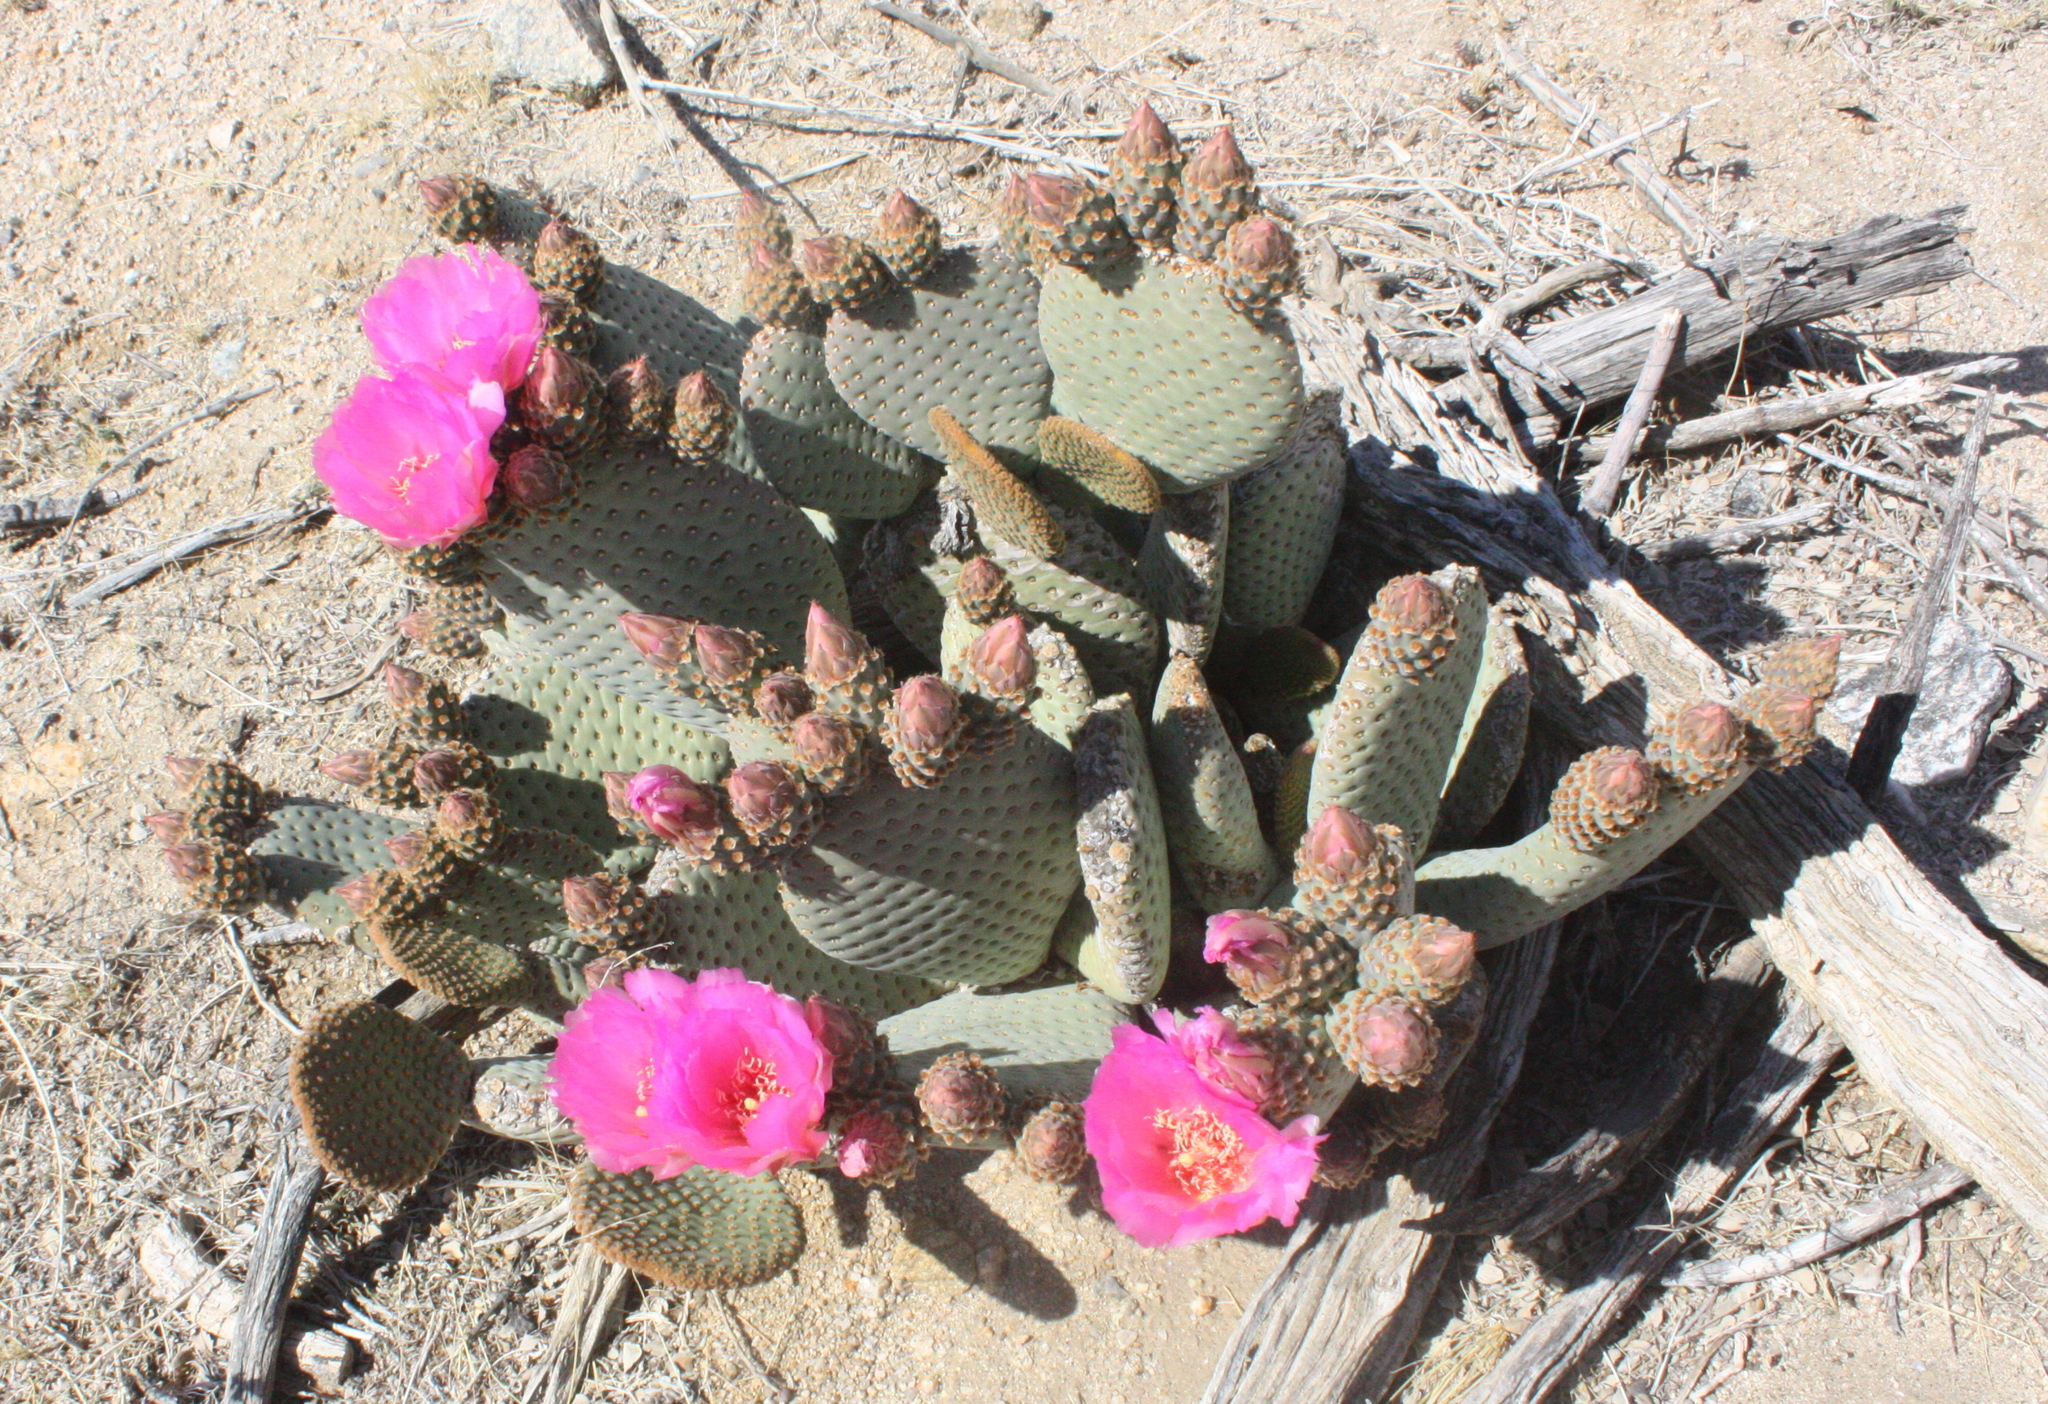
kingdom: Plantae
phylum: Tracheophyta
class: Magnoliopsida
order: Caryophyllales
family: Cactaceae
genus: Opuntia
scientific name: Opuntia basilaris
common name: Beavertail prickly-pear
